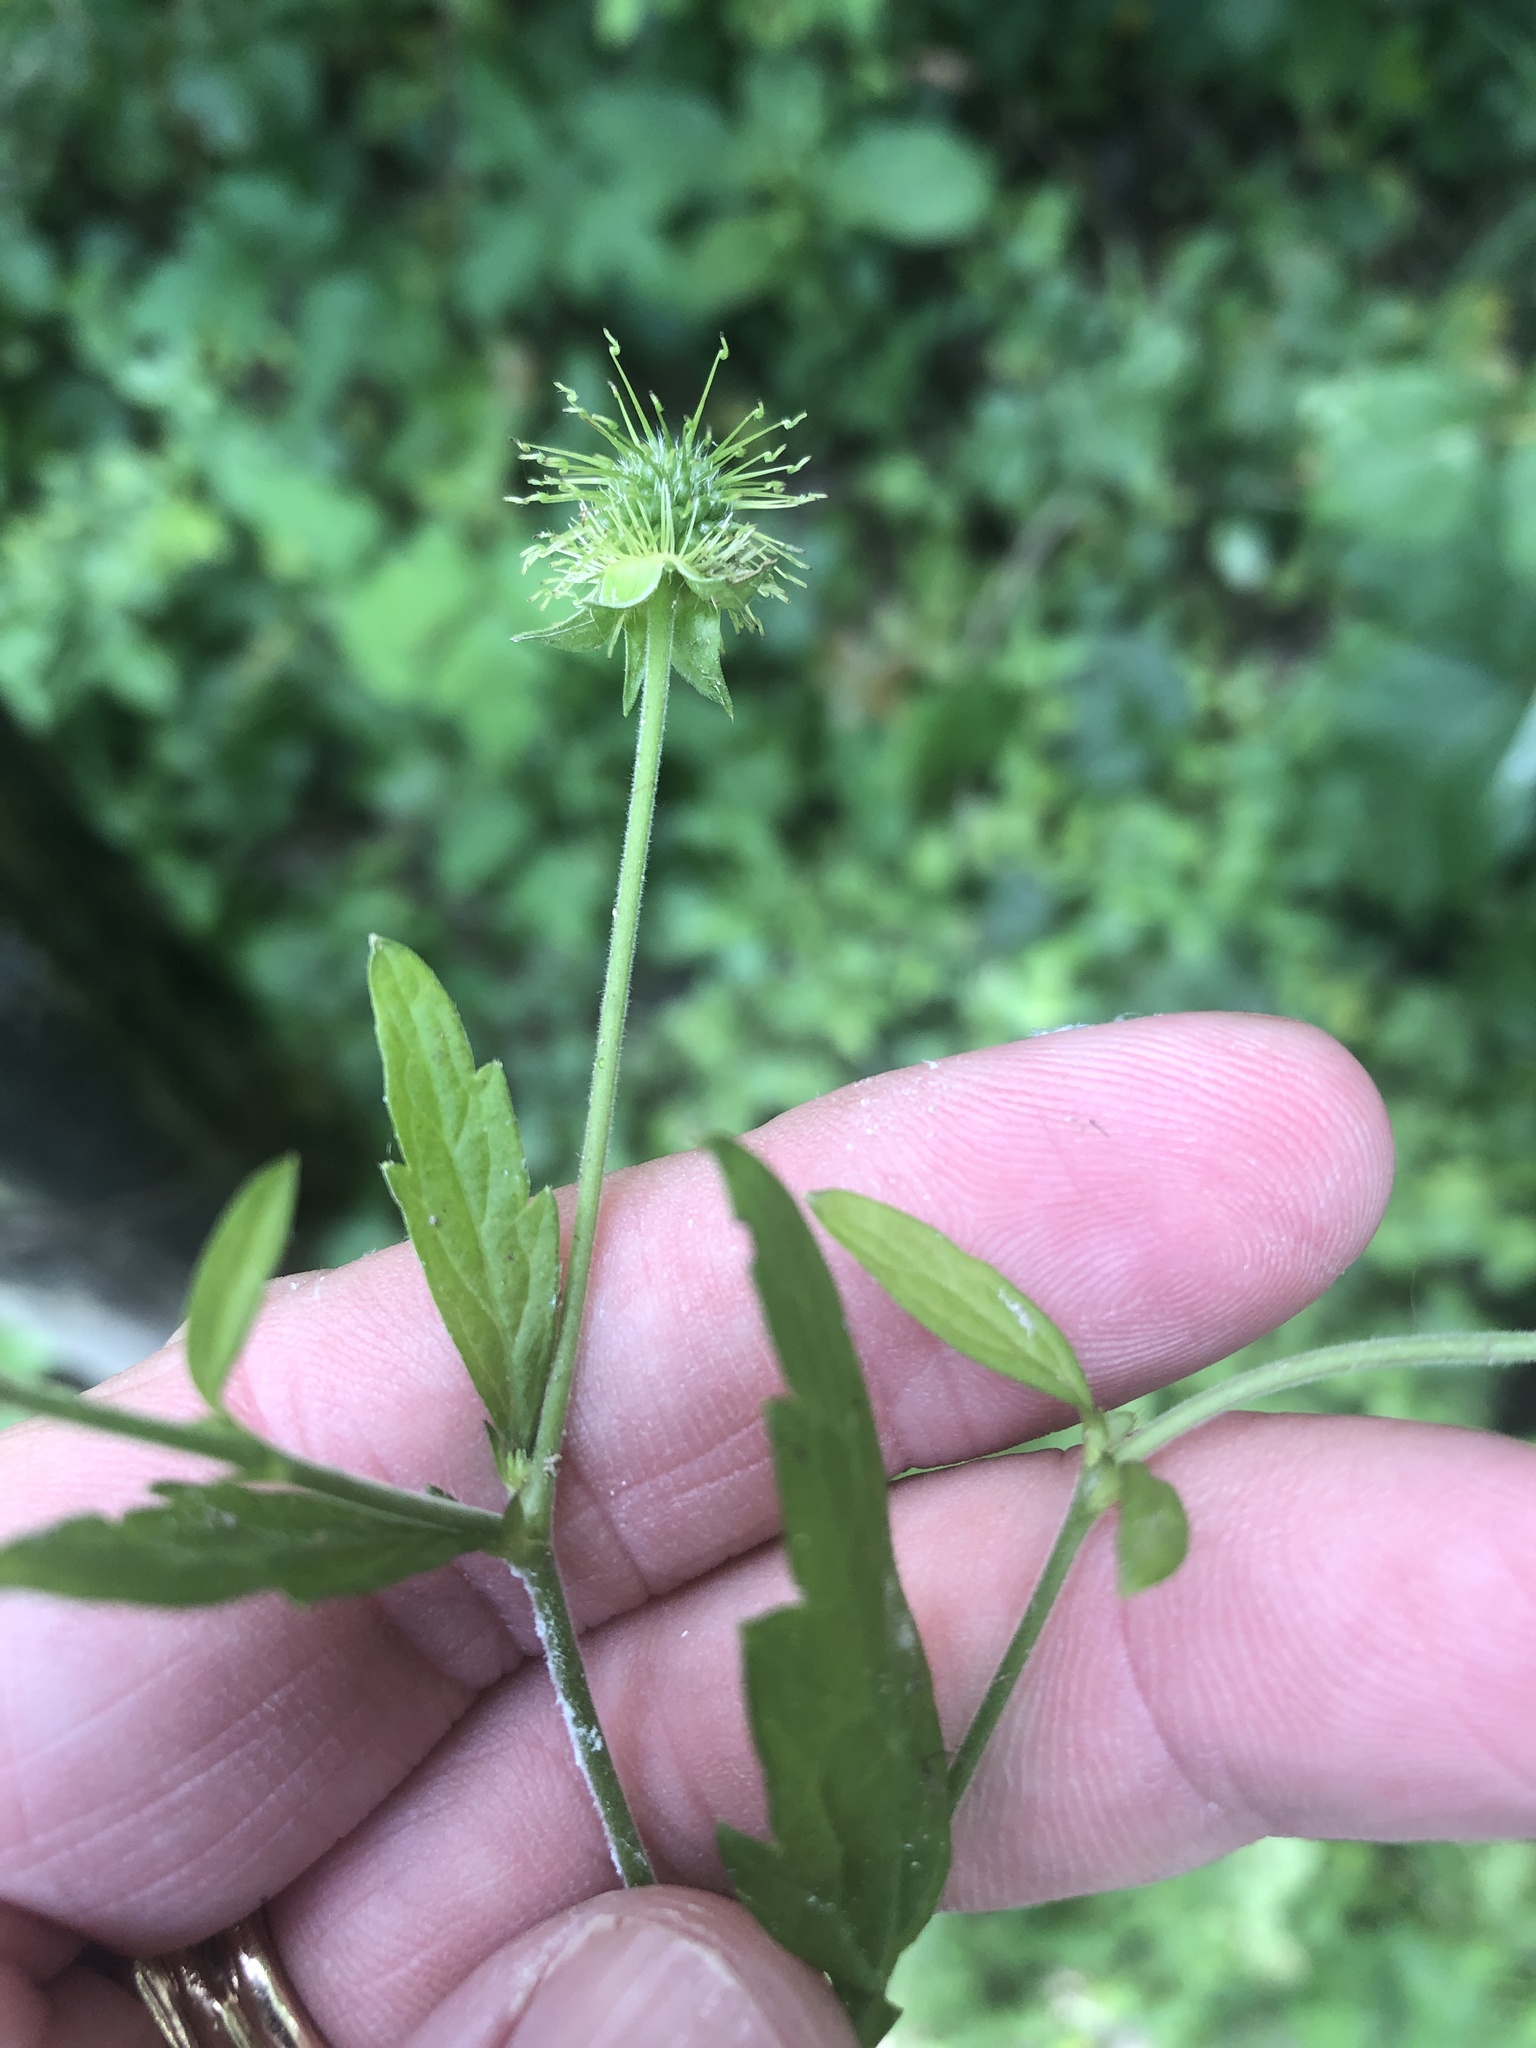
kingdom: Plantae
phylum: Tracheophyta
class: Magnoliopsida
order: Rosales
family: Rosaceae
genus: Geum
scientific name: Geum canadense
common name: White avens
